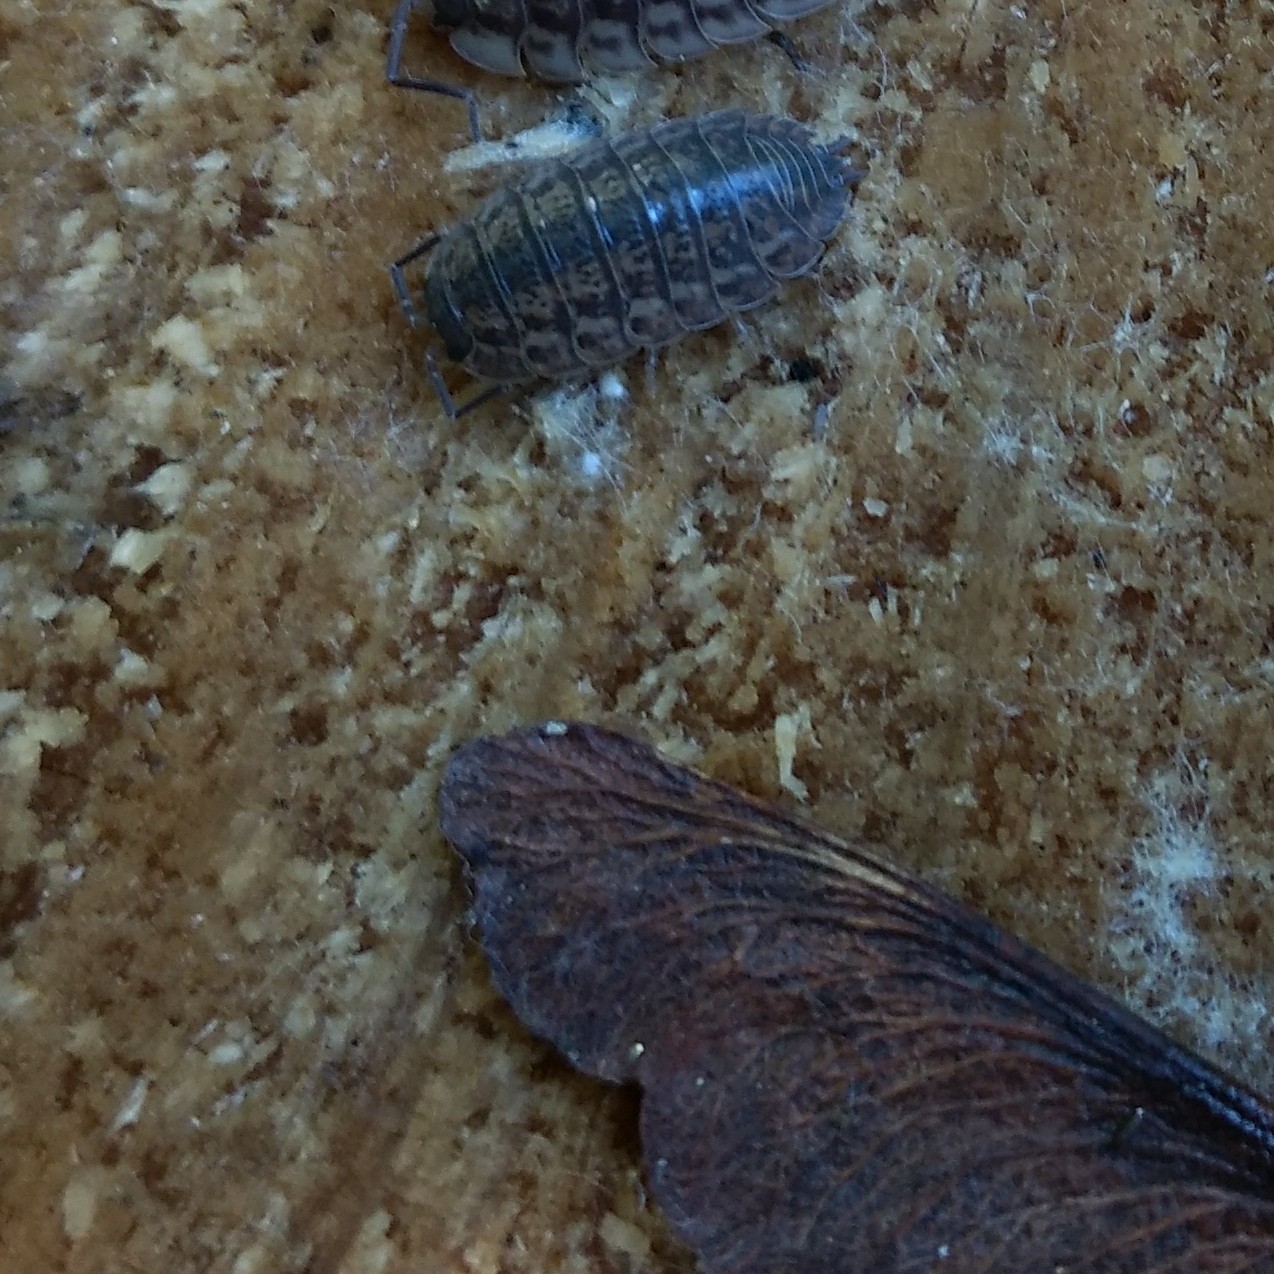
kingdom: Animalia
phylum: Arthropoda
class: Malacostraca
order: Isopoda
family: Trachelipodidae
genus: Trachelipus
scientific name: Trachelipus rathkii
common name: Isopod
